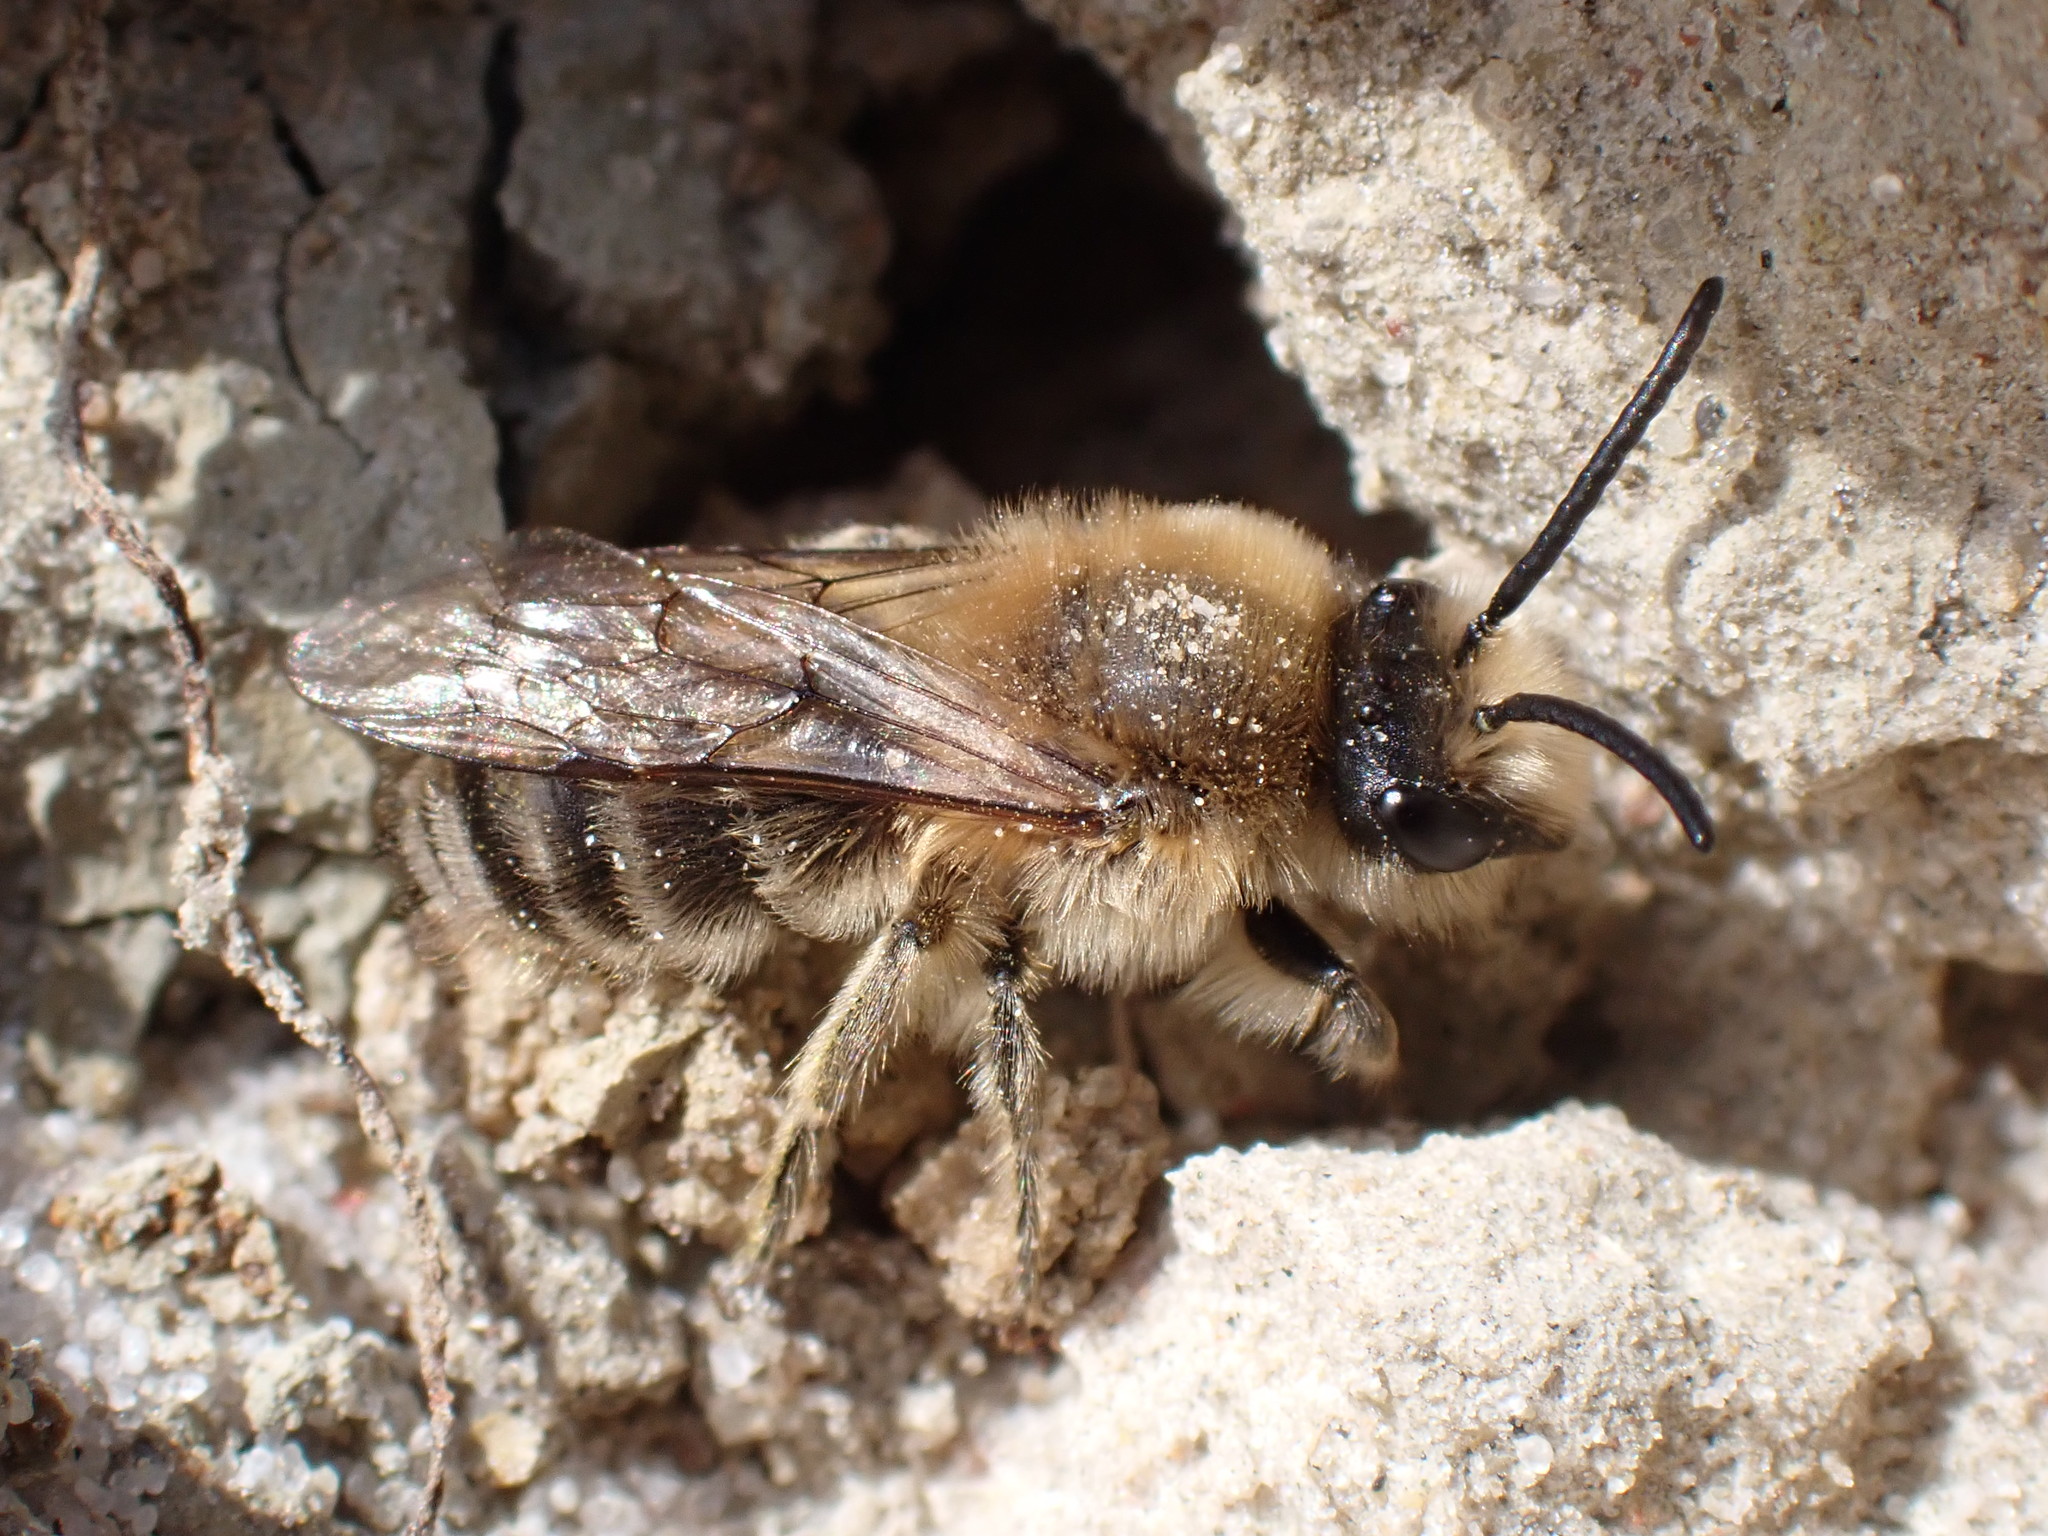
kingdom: Animalia
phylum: Arthropoda
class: Insecta
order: Hymenoptera
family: Colletidae
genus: Colletes
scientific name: Colletes cunicularius
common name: Early colletes
